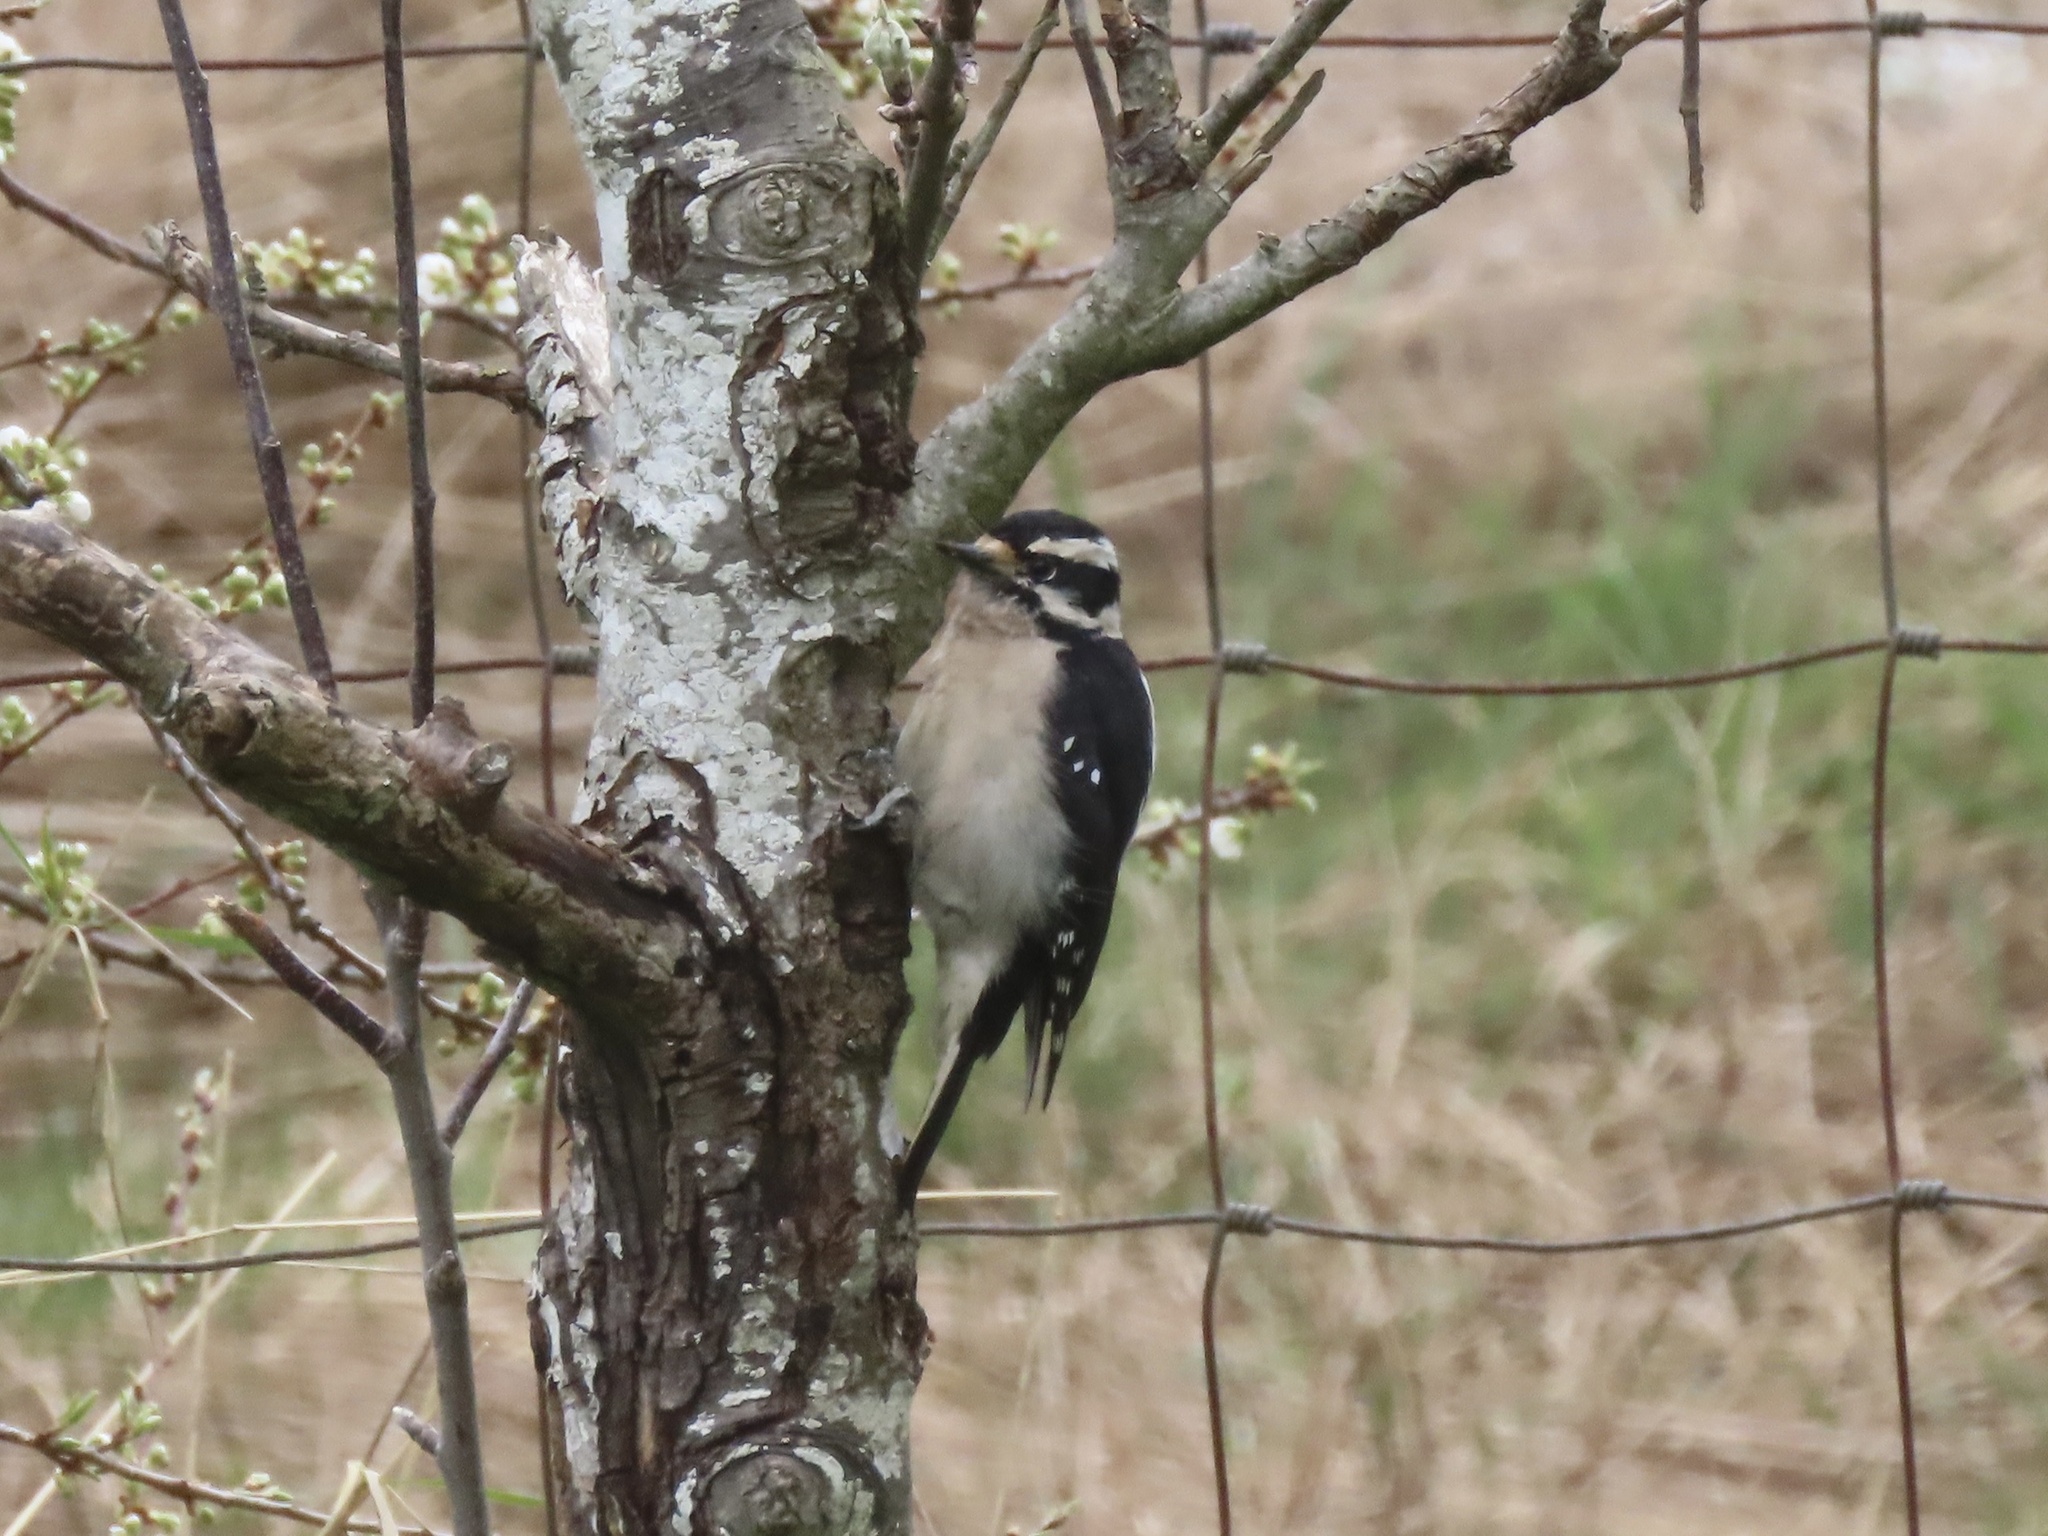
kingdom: Animalia
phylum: Chordata
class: Aves
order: Piciformes
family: Picidae
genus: Dryobates
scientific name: Dryobates pubescens
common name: Downy woodpecker
